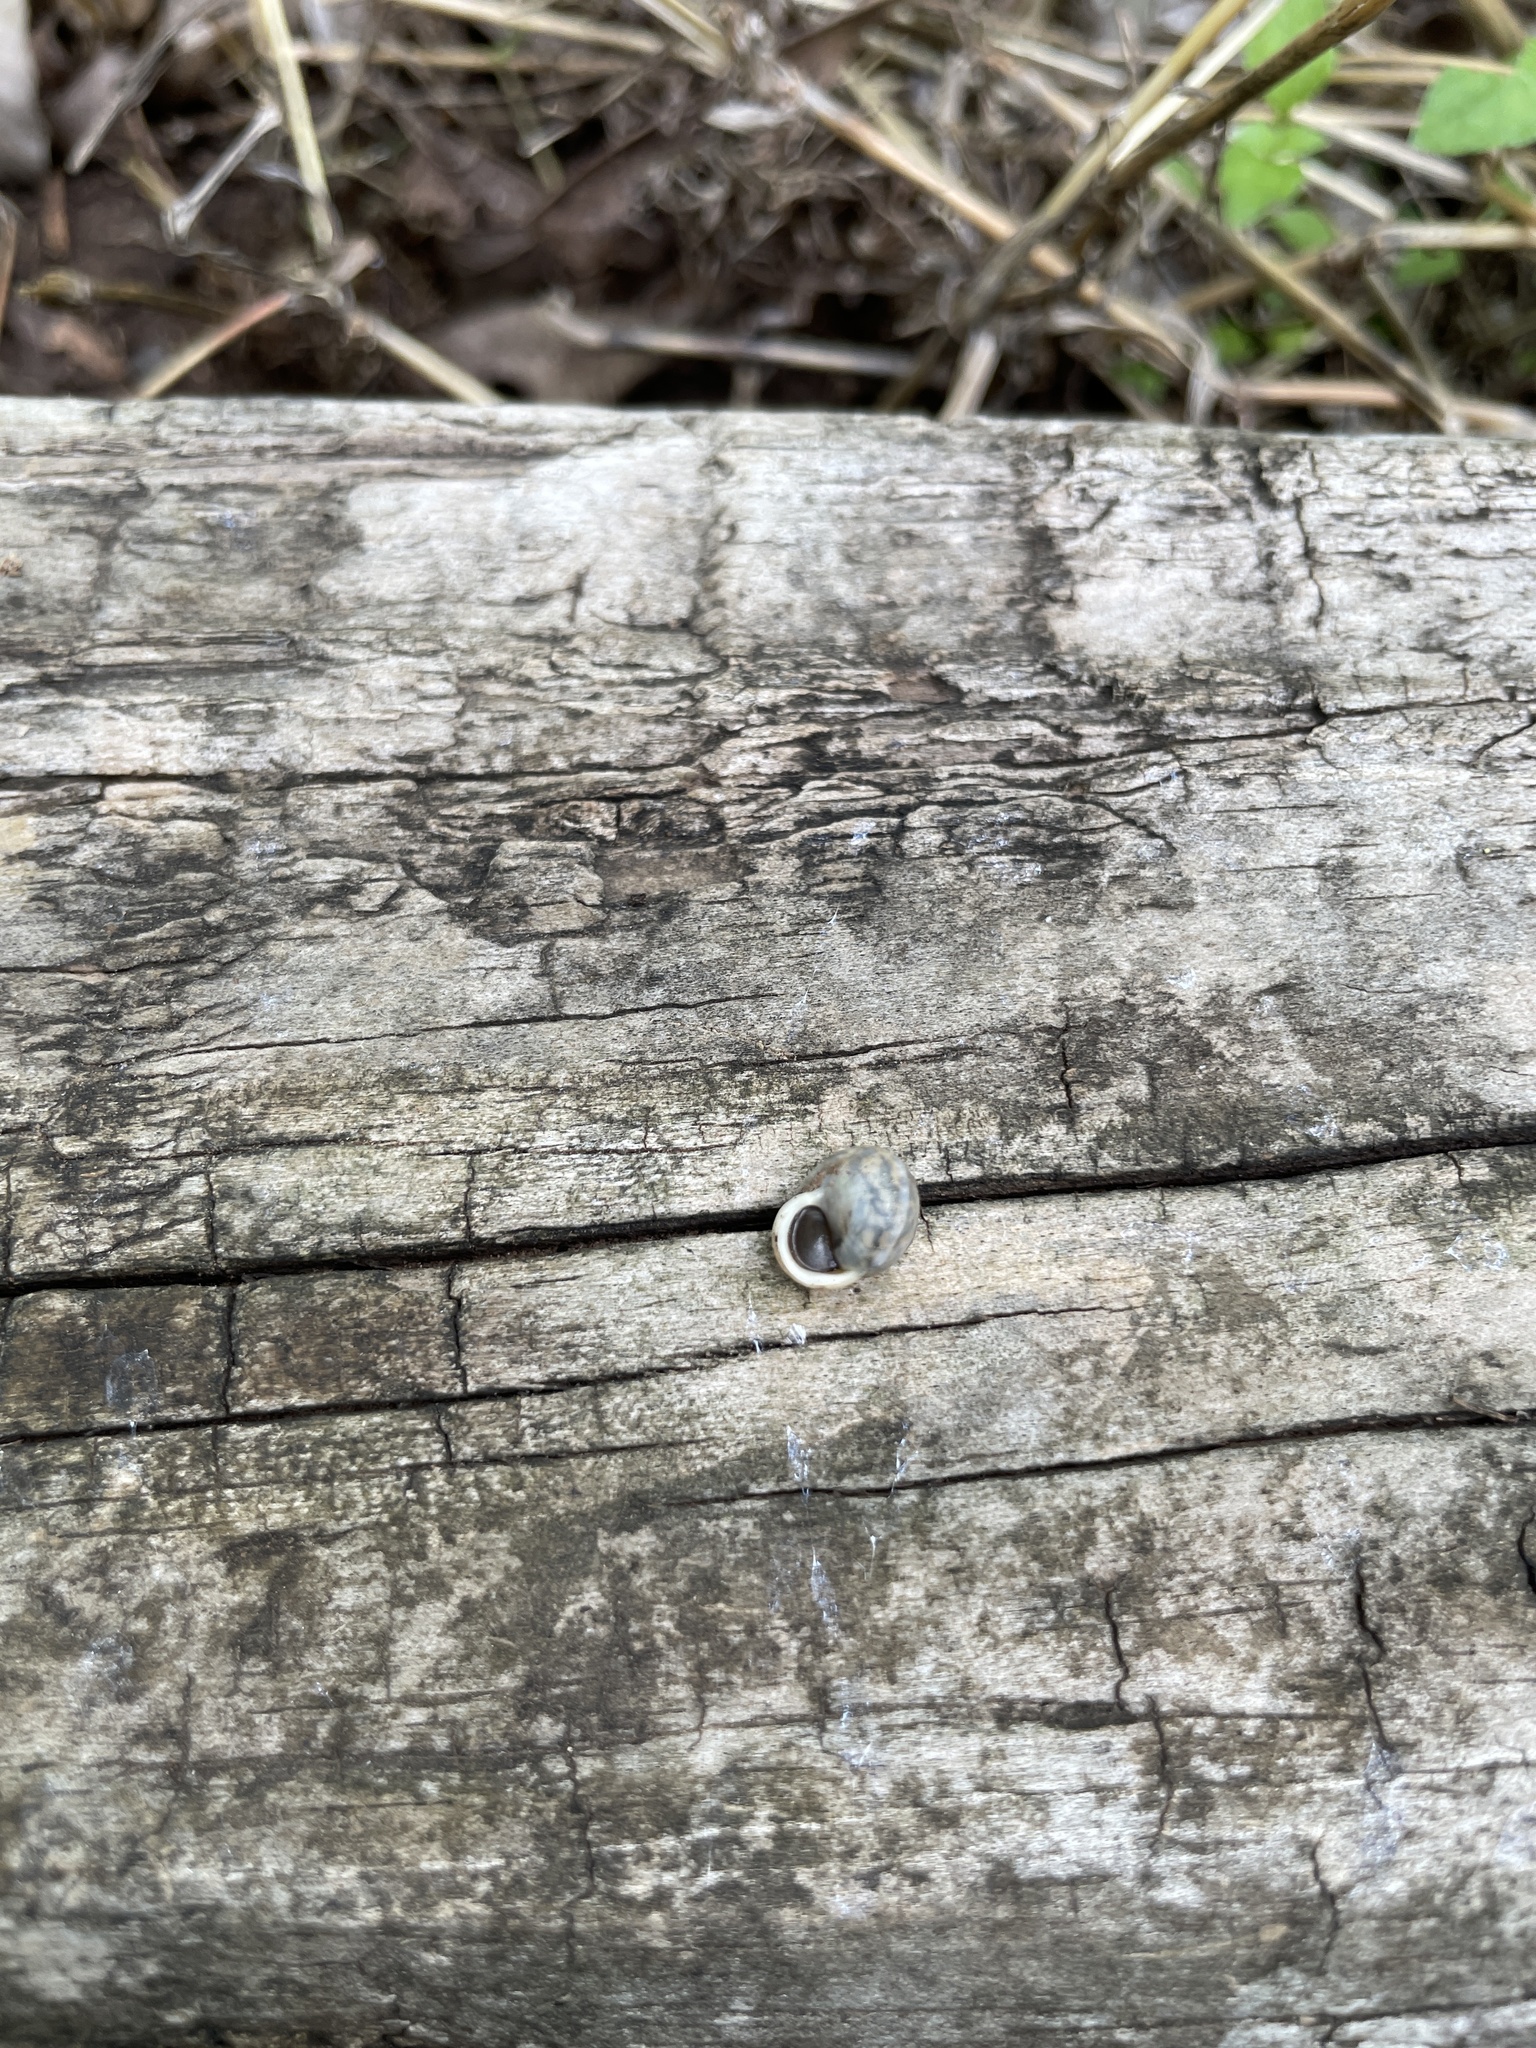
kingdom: Animalia
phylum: Mollusca
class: Gastropoda
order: Cycloneritida
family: Helicinidae
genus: Helicina
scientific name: Helicina orbiculata
